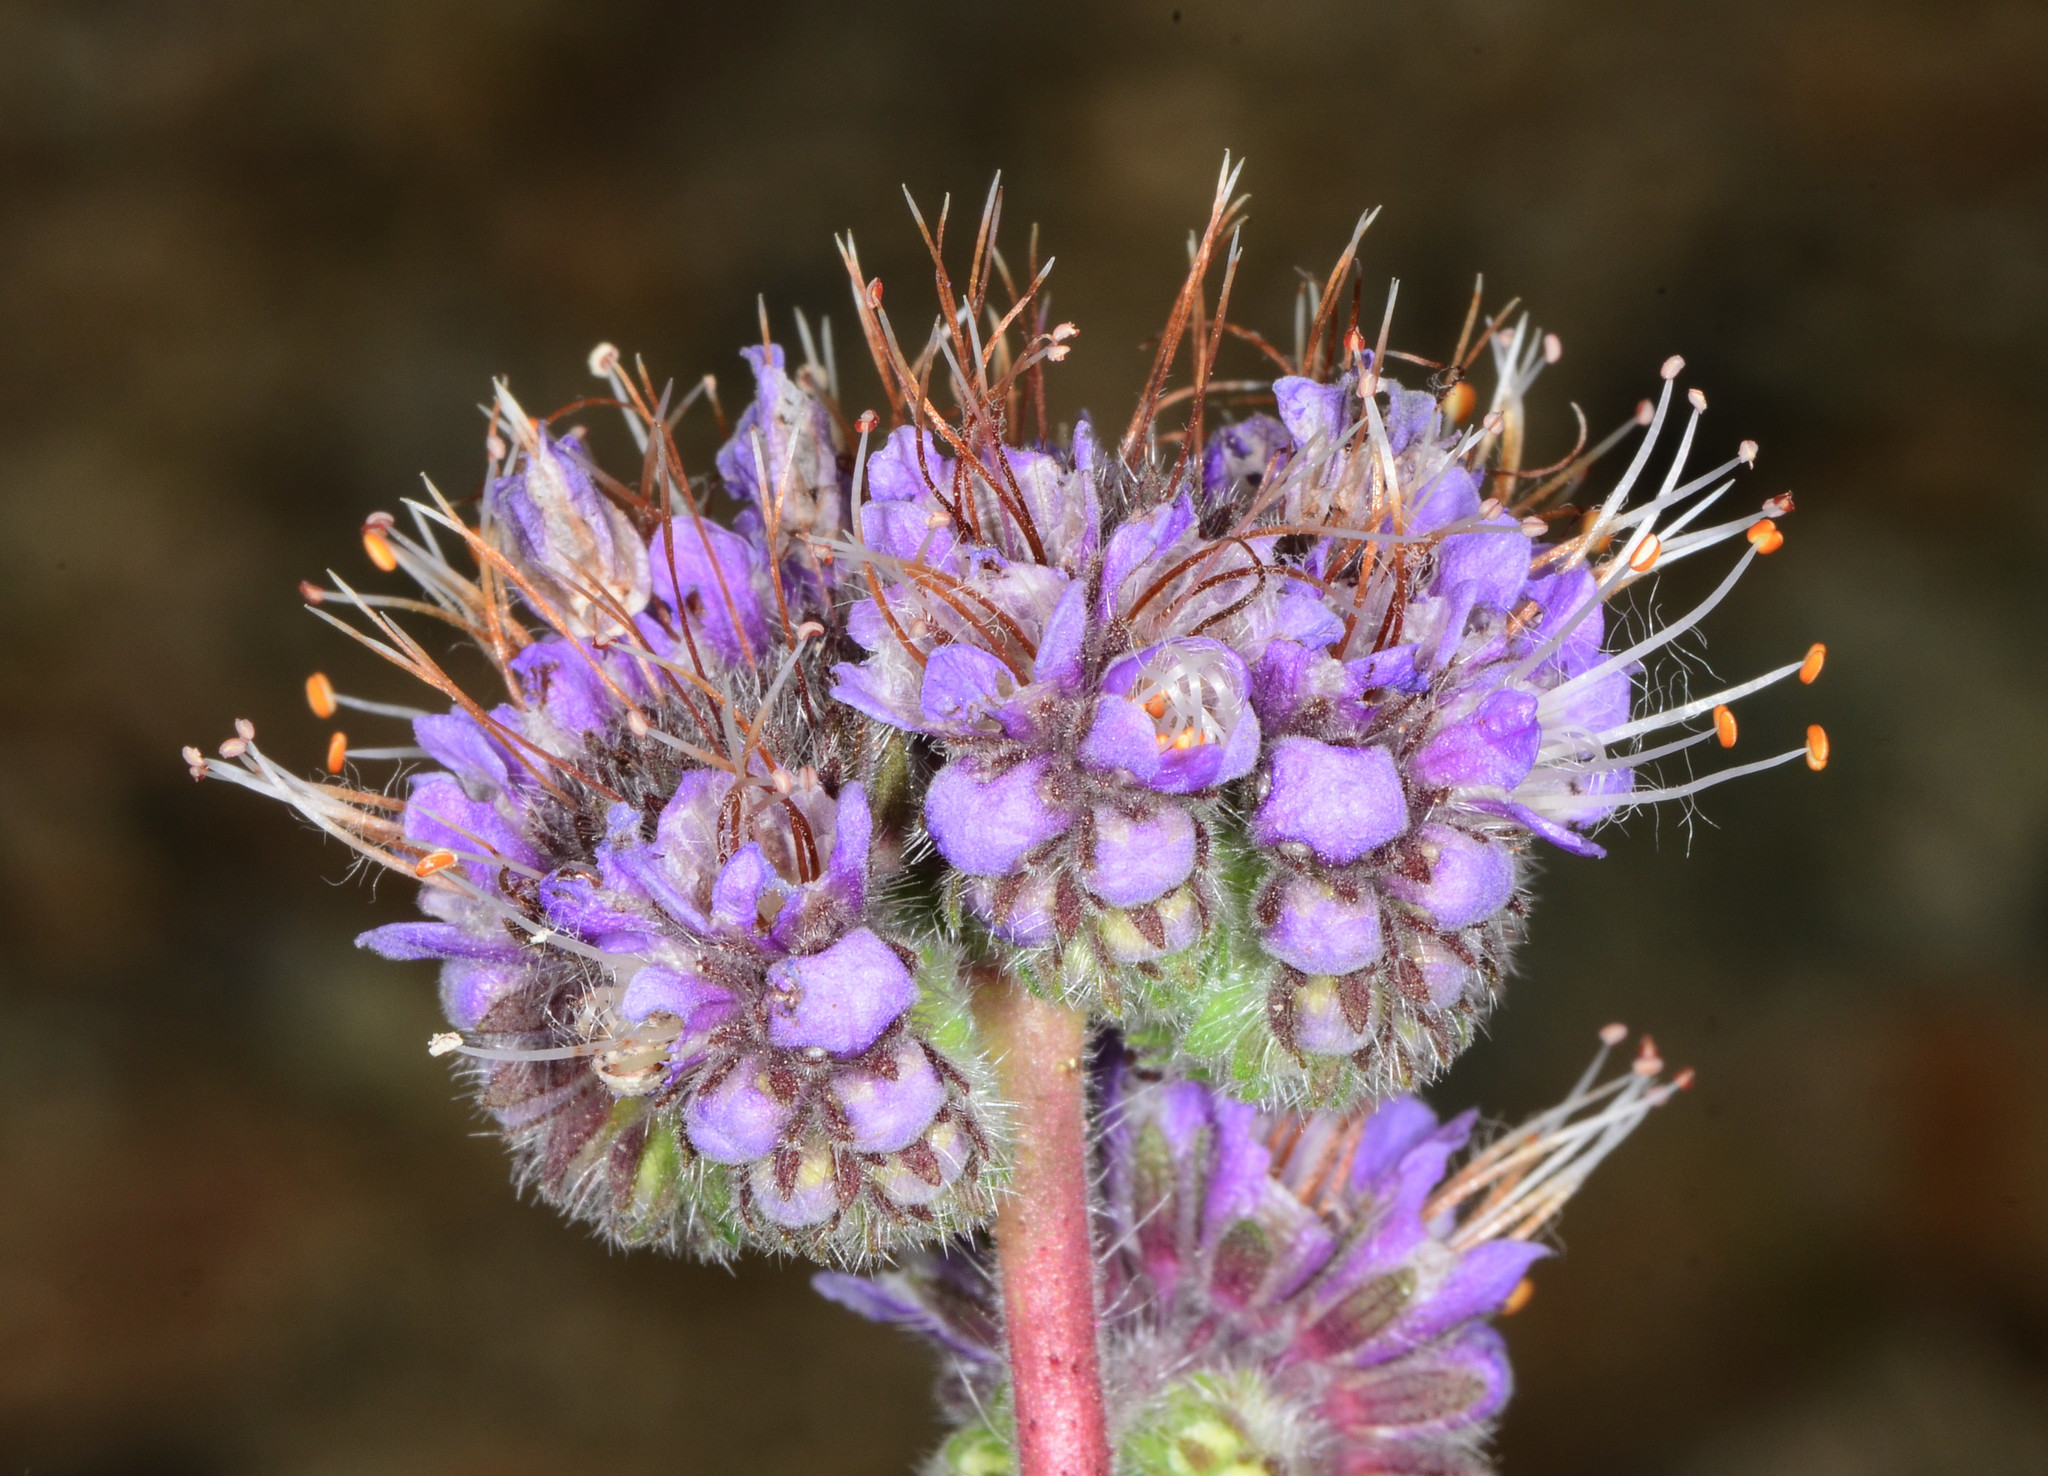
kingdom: Plantae
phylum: Tracheophyta
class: Magnoliopsida
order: Boraginales
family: Hydrophyllaceae
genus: Phacelia
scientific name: Phacelia californica
